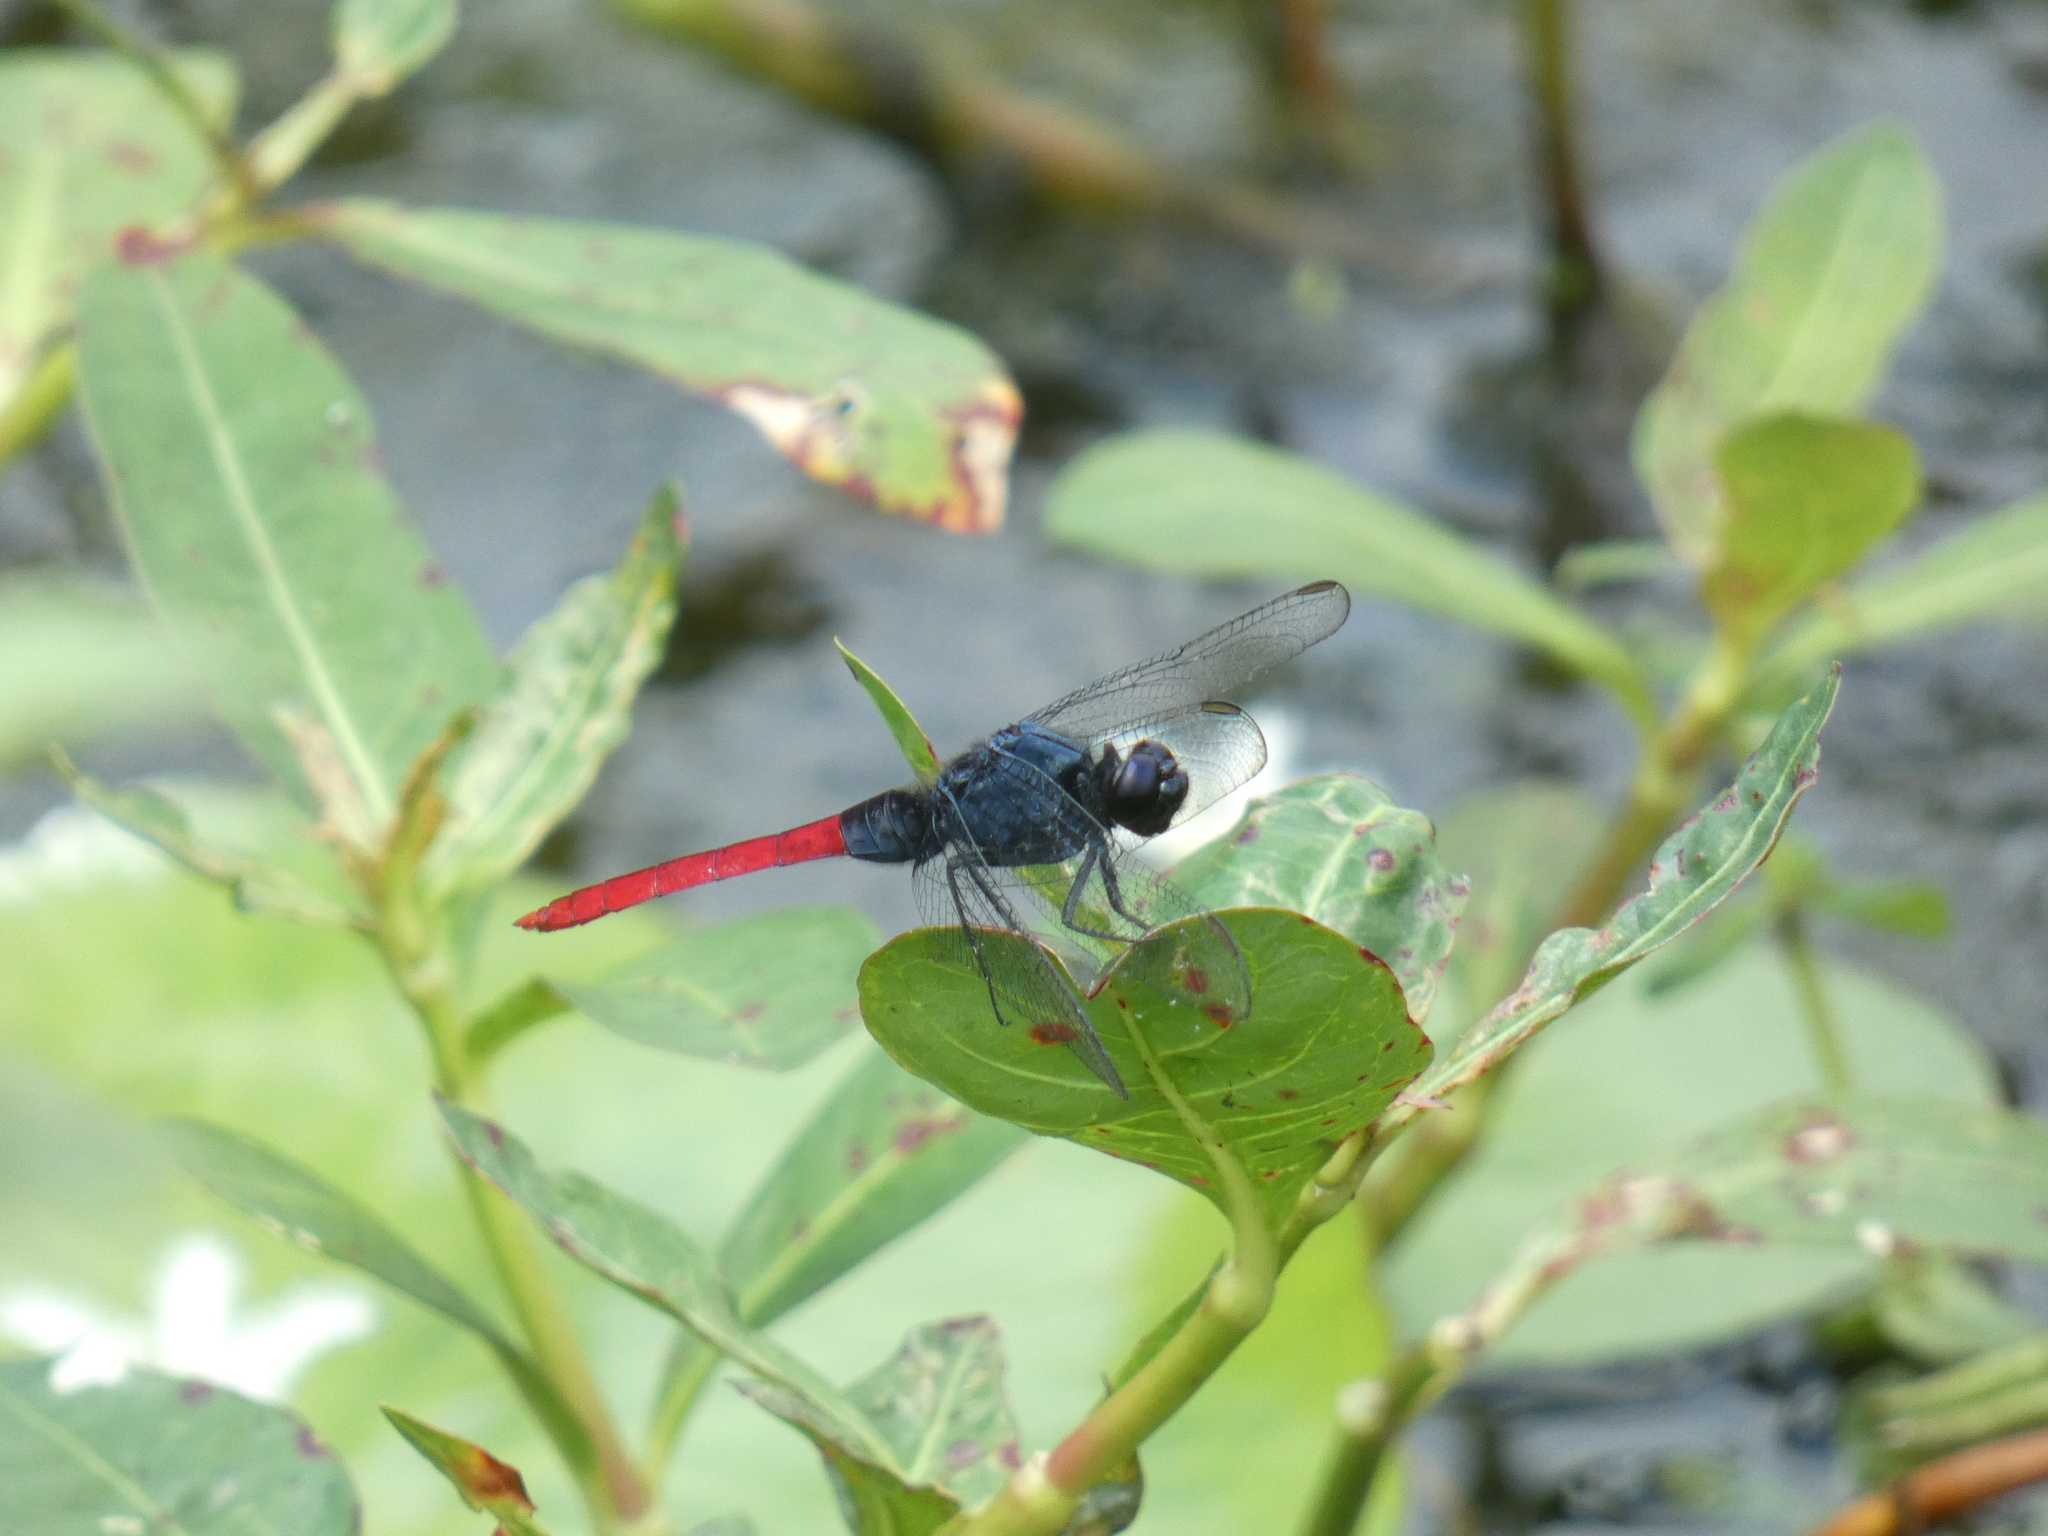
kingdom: Animalia
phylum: Arthropoda
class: Insecta
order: Odonata
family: Libellulidae
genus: Erythemis
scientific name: Erythemis peruviana
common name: Flame-tailed pondhawk
